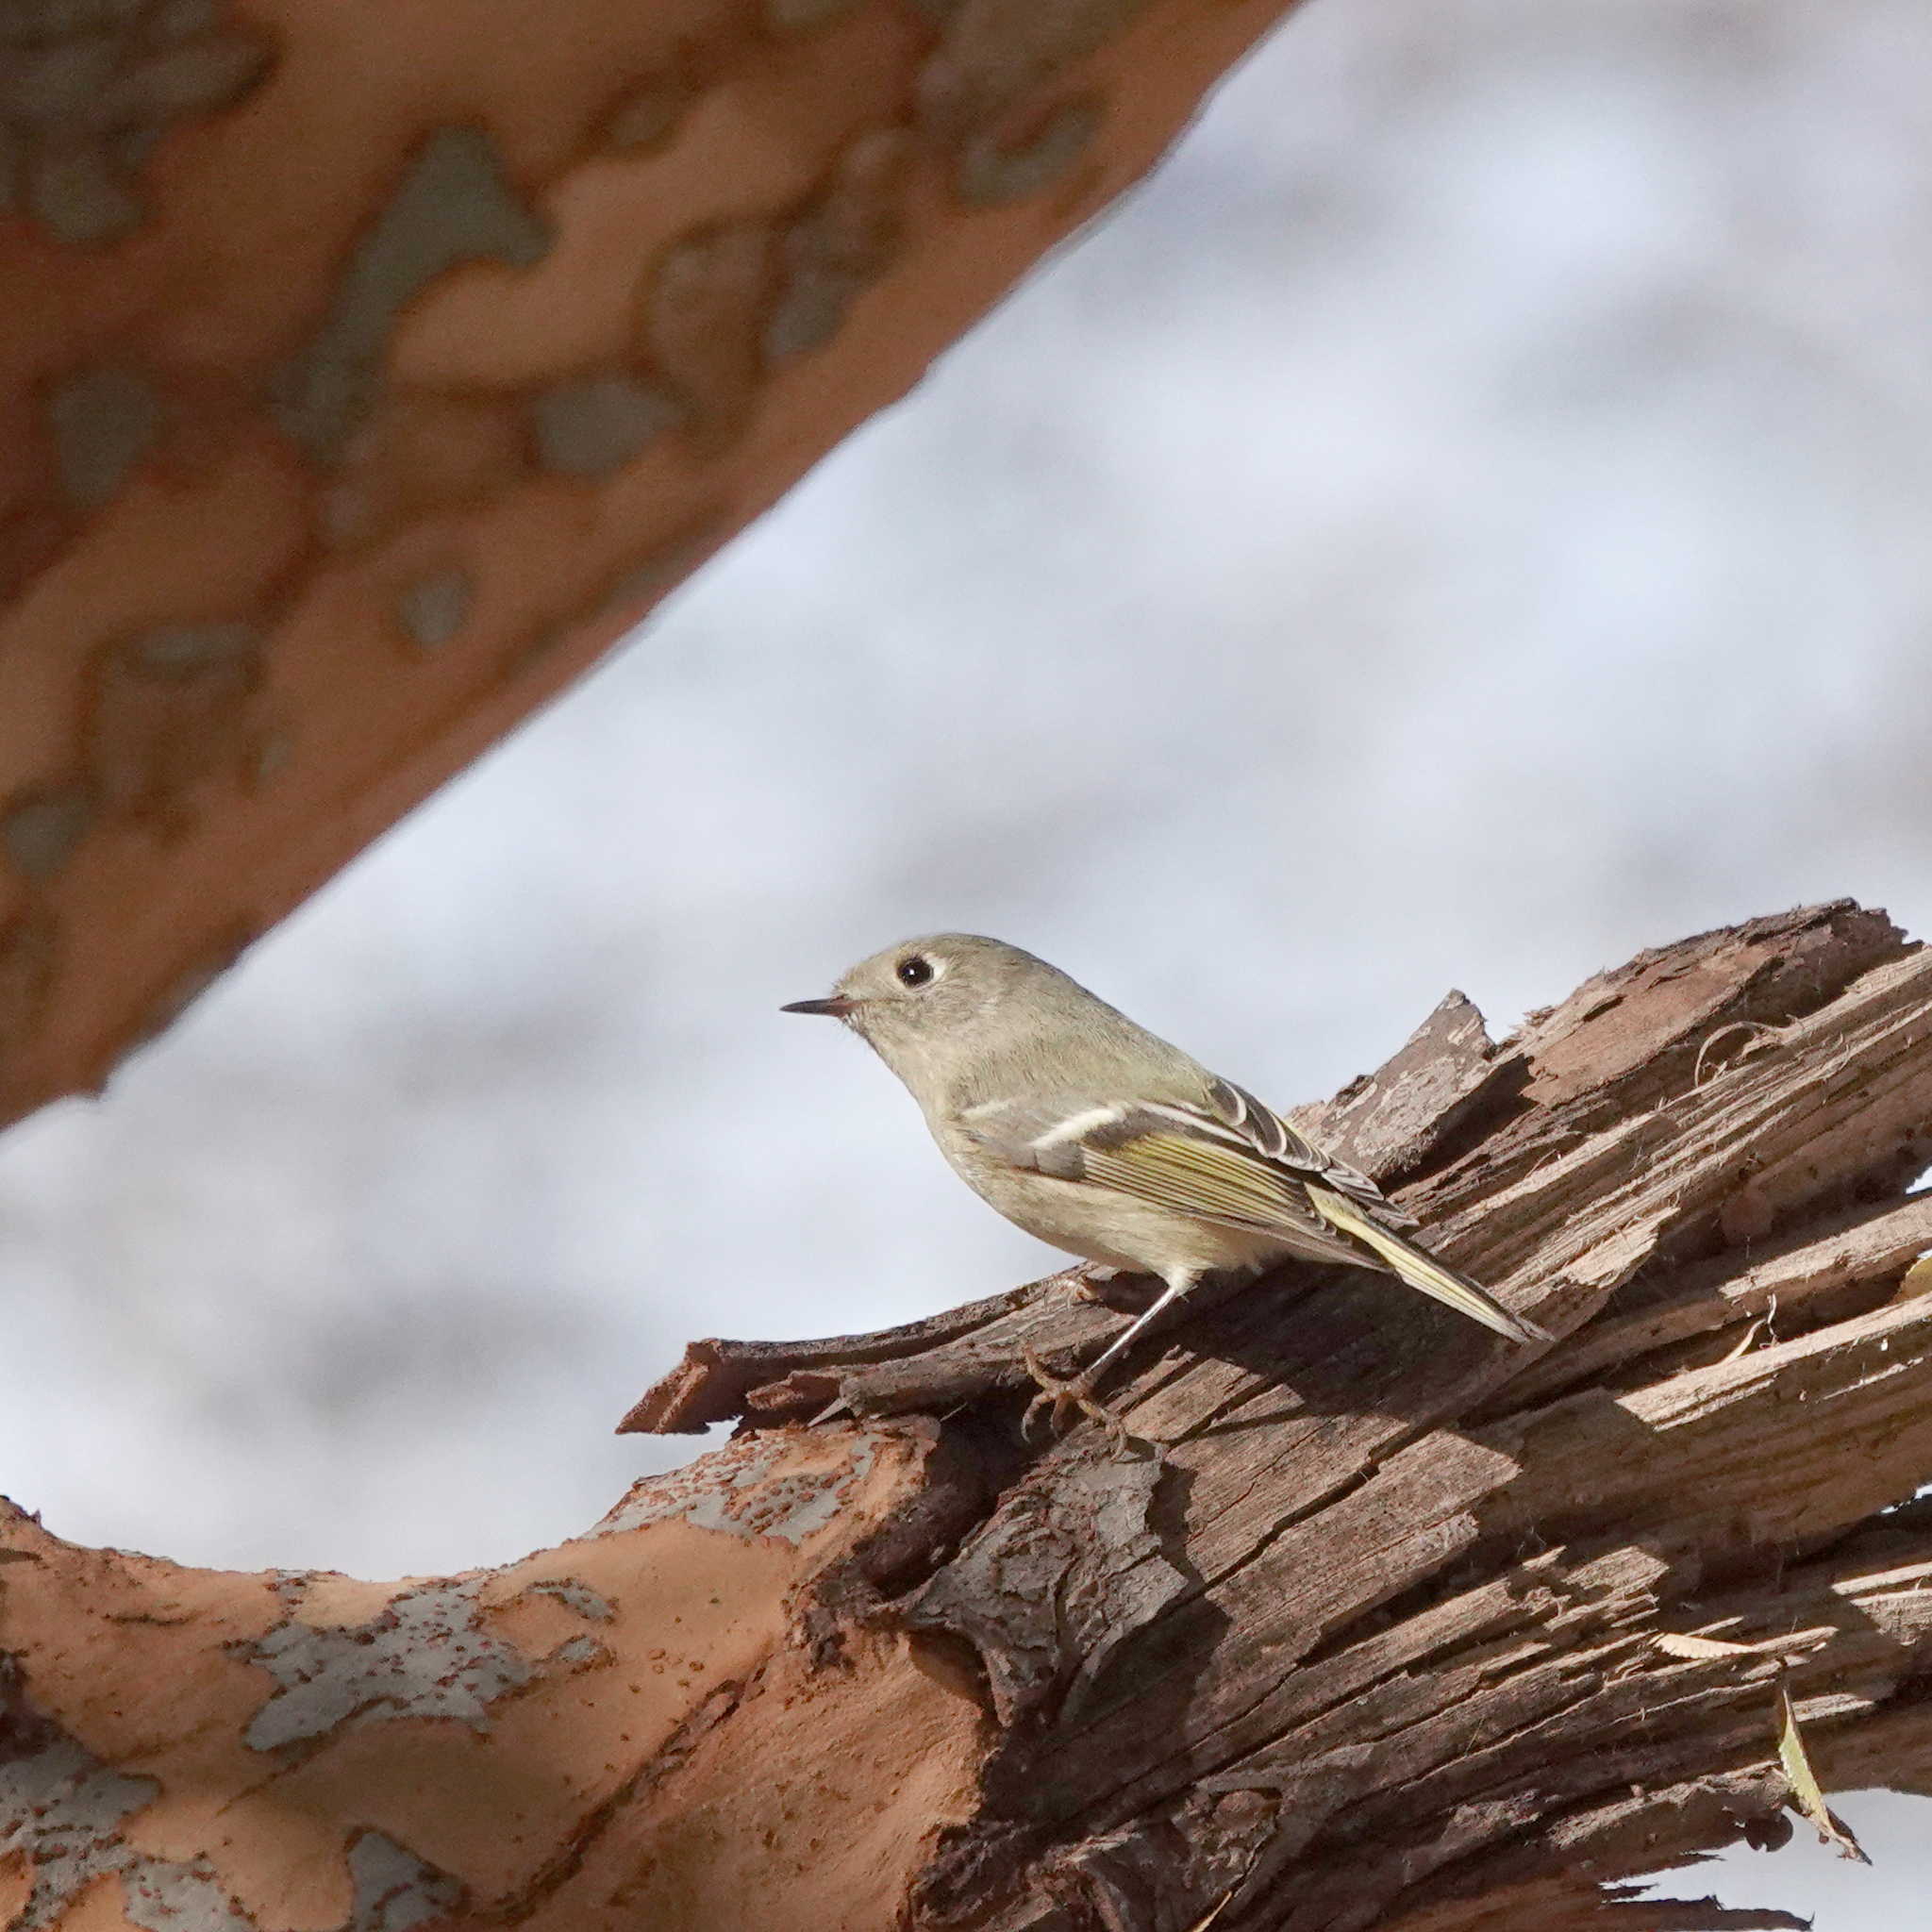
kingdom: Animalia
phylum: Chordata
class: Aves
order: Passeriformes
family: Regulidae
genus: Regulus
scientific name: Regulus calendula
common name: Ruby-crowned kinglet
